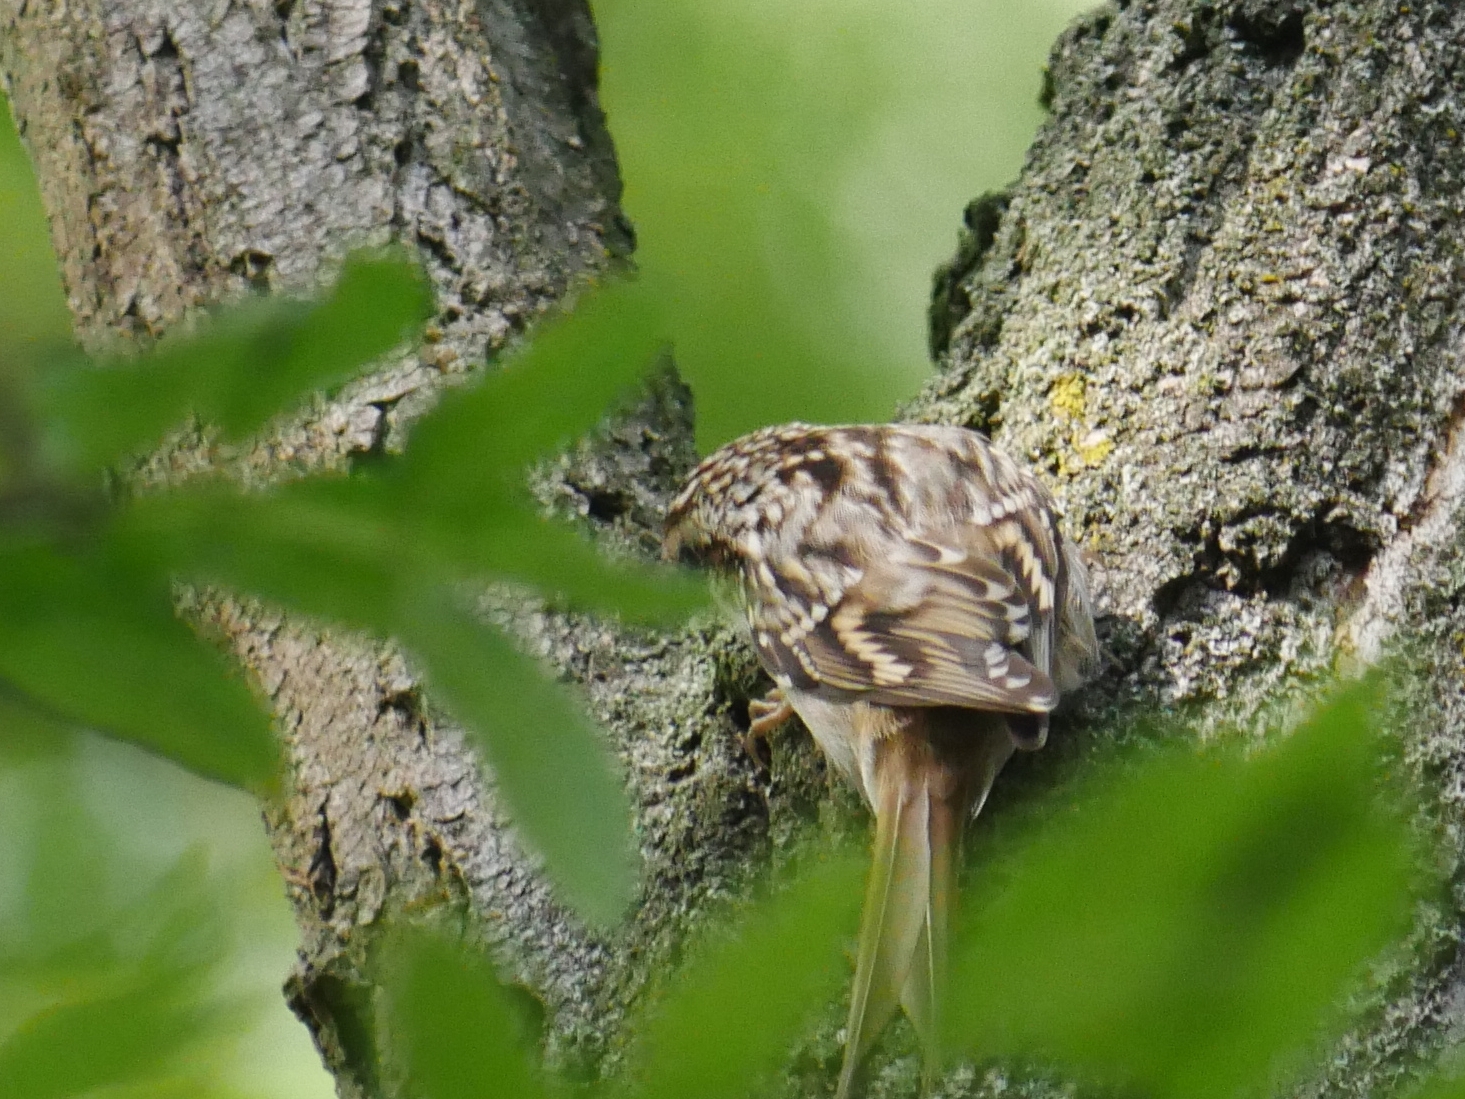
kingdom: Animalia
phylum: Chordata
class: Aves
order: Passeriformes
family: Certhiidae
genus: Certhia
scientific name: Certhia familiaris
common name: Eurasian treecreeper
